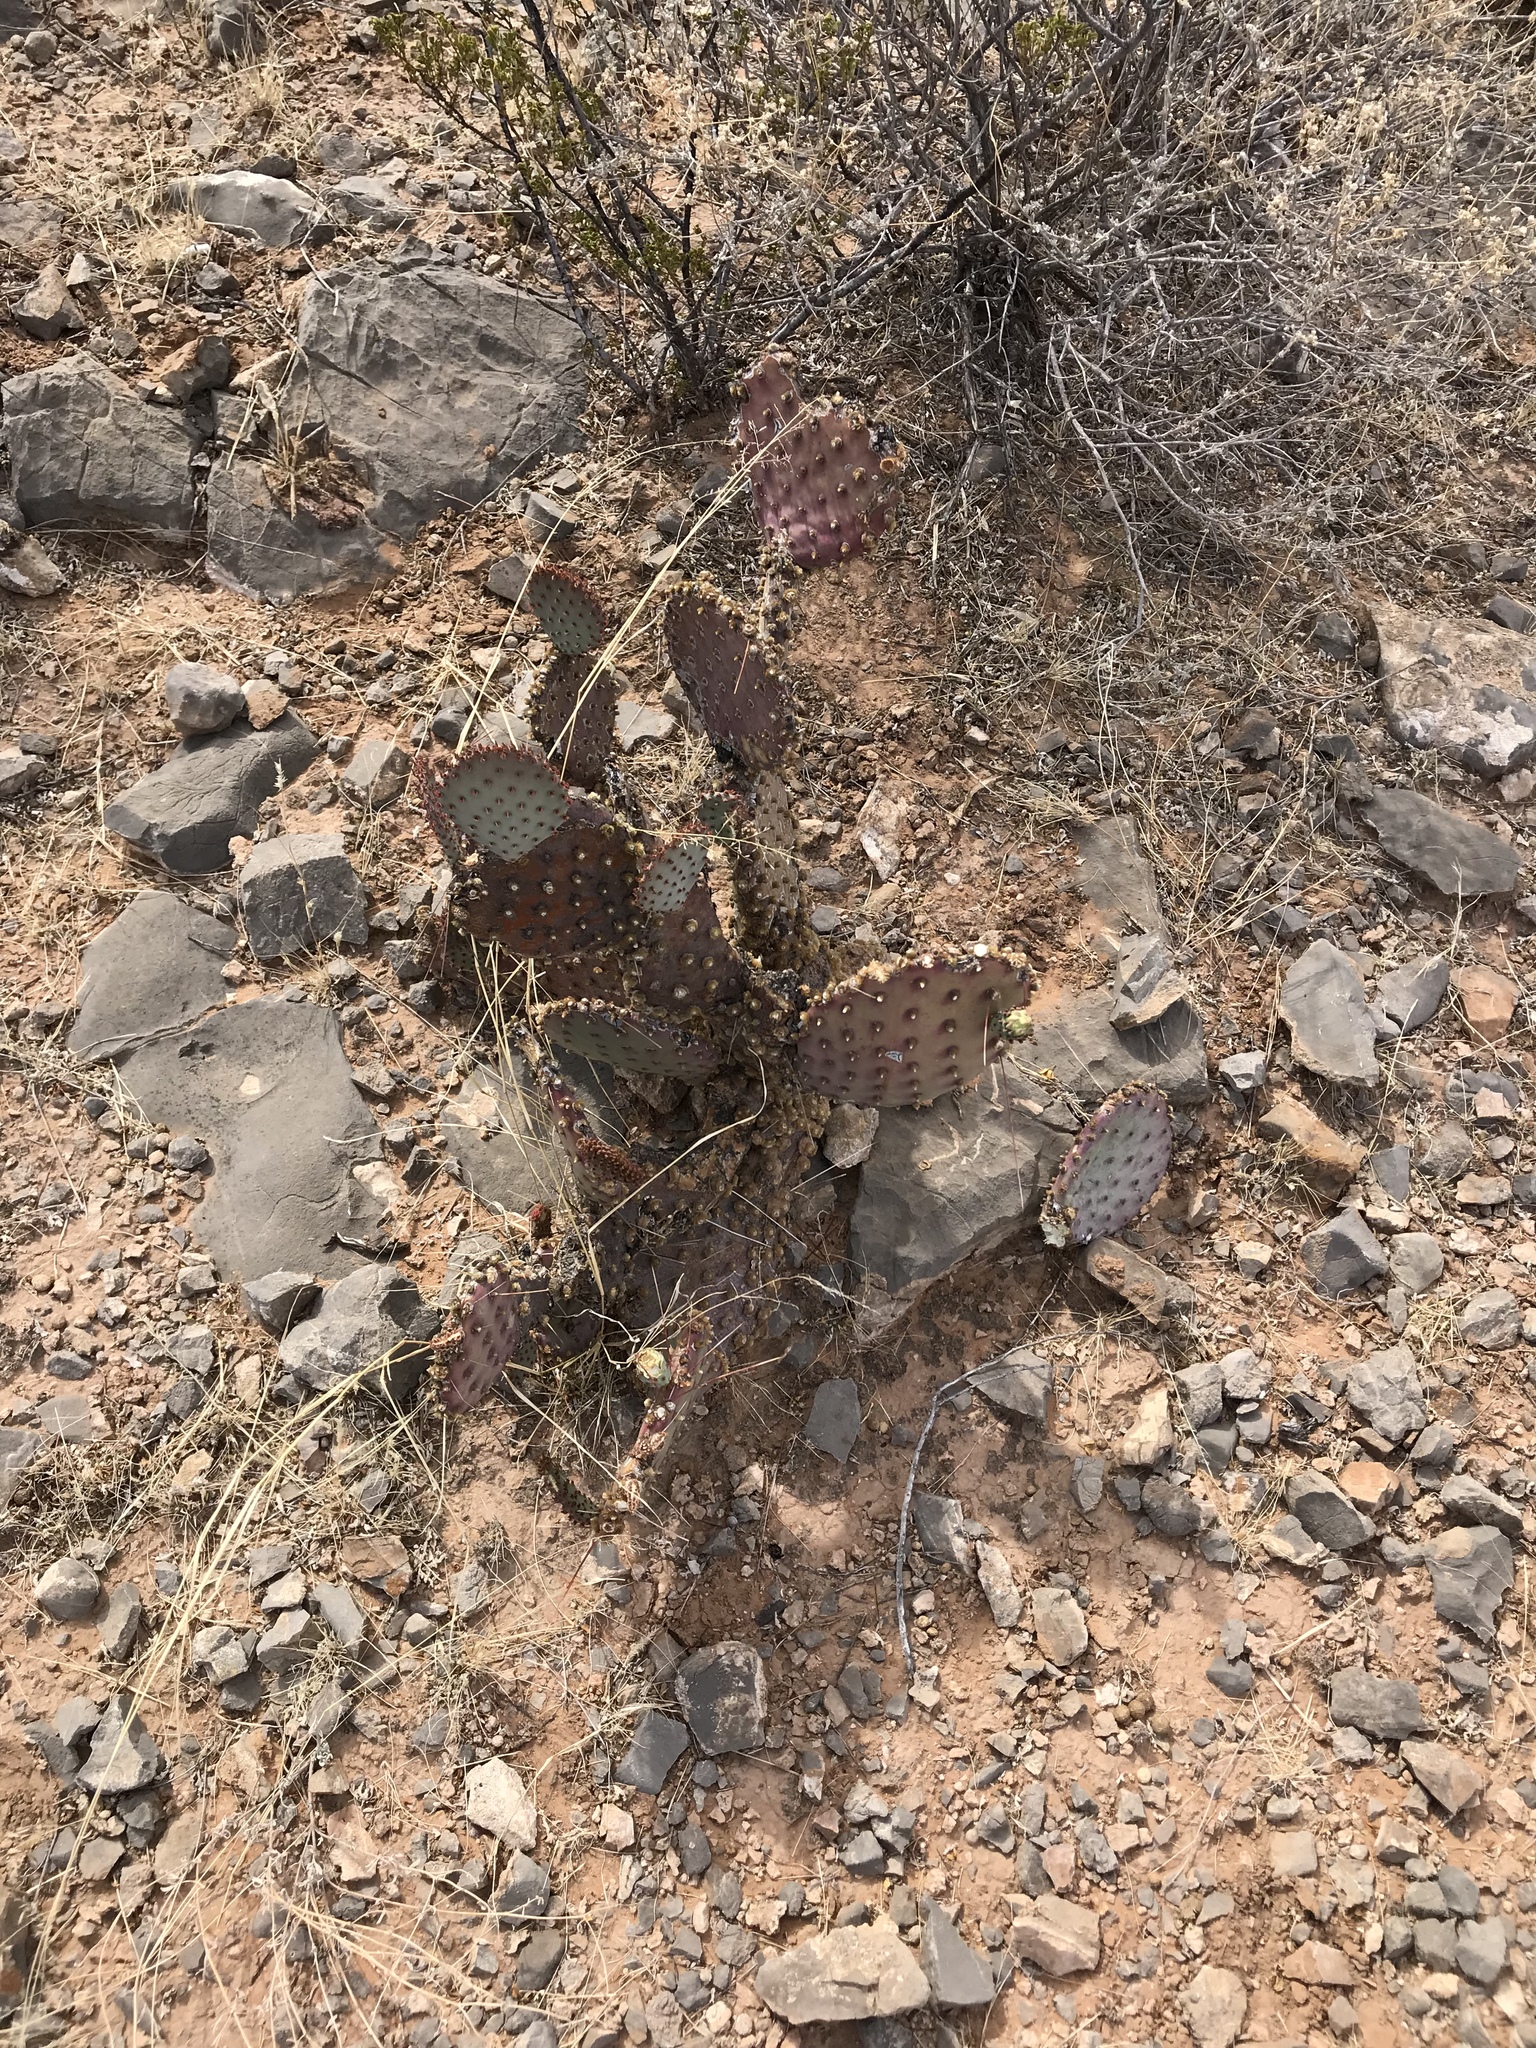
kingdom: Plantae
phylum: Tracheophyta
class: Magnoliopsida
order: Caryophyllales
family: Cactaceae
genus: Opuntia
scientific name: Opuntia macrocentra
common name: Purple prickly-pear
